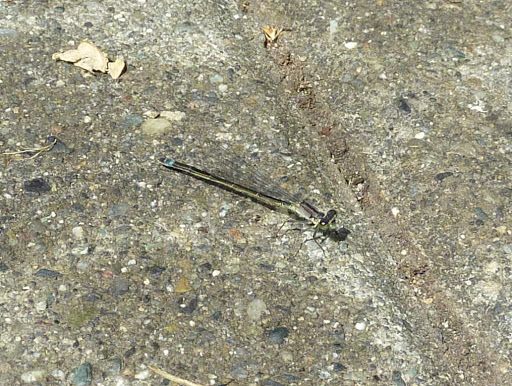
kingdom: Animalia
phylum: Arthropoda
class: Insecta
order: Odonata
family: Coenagrionidae
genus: Ischnura
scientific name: Ischnura cervula
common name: Pacific forktail
